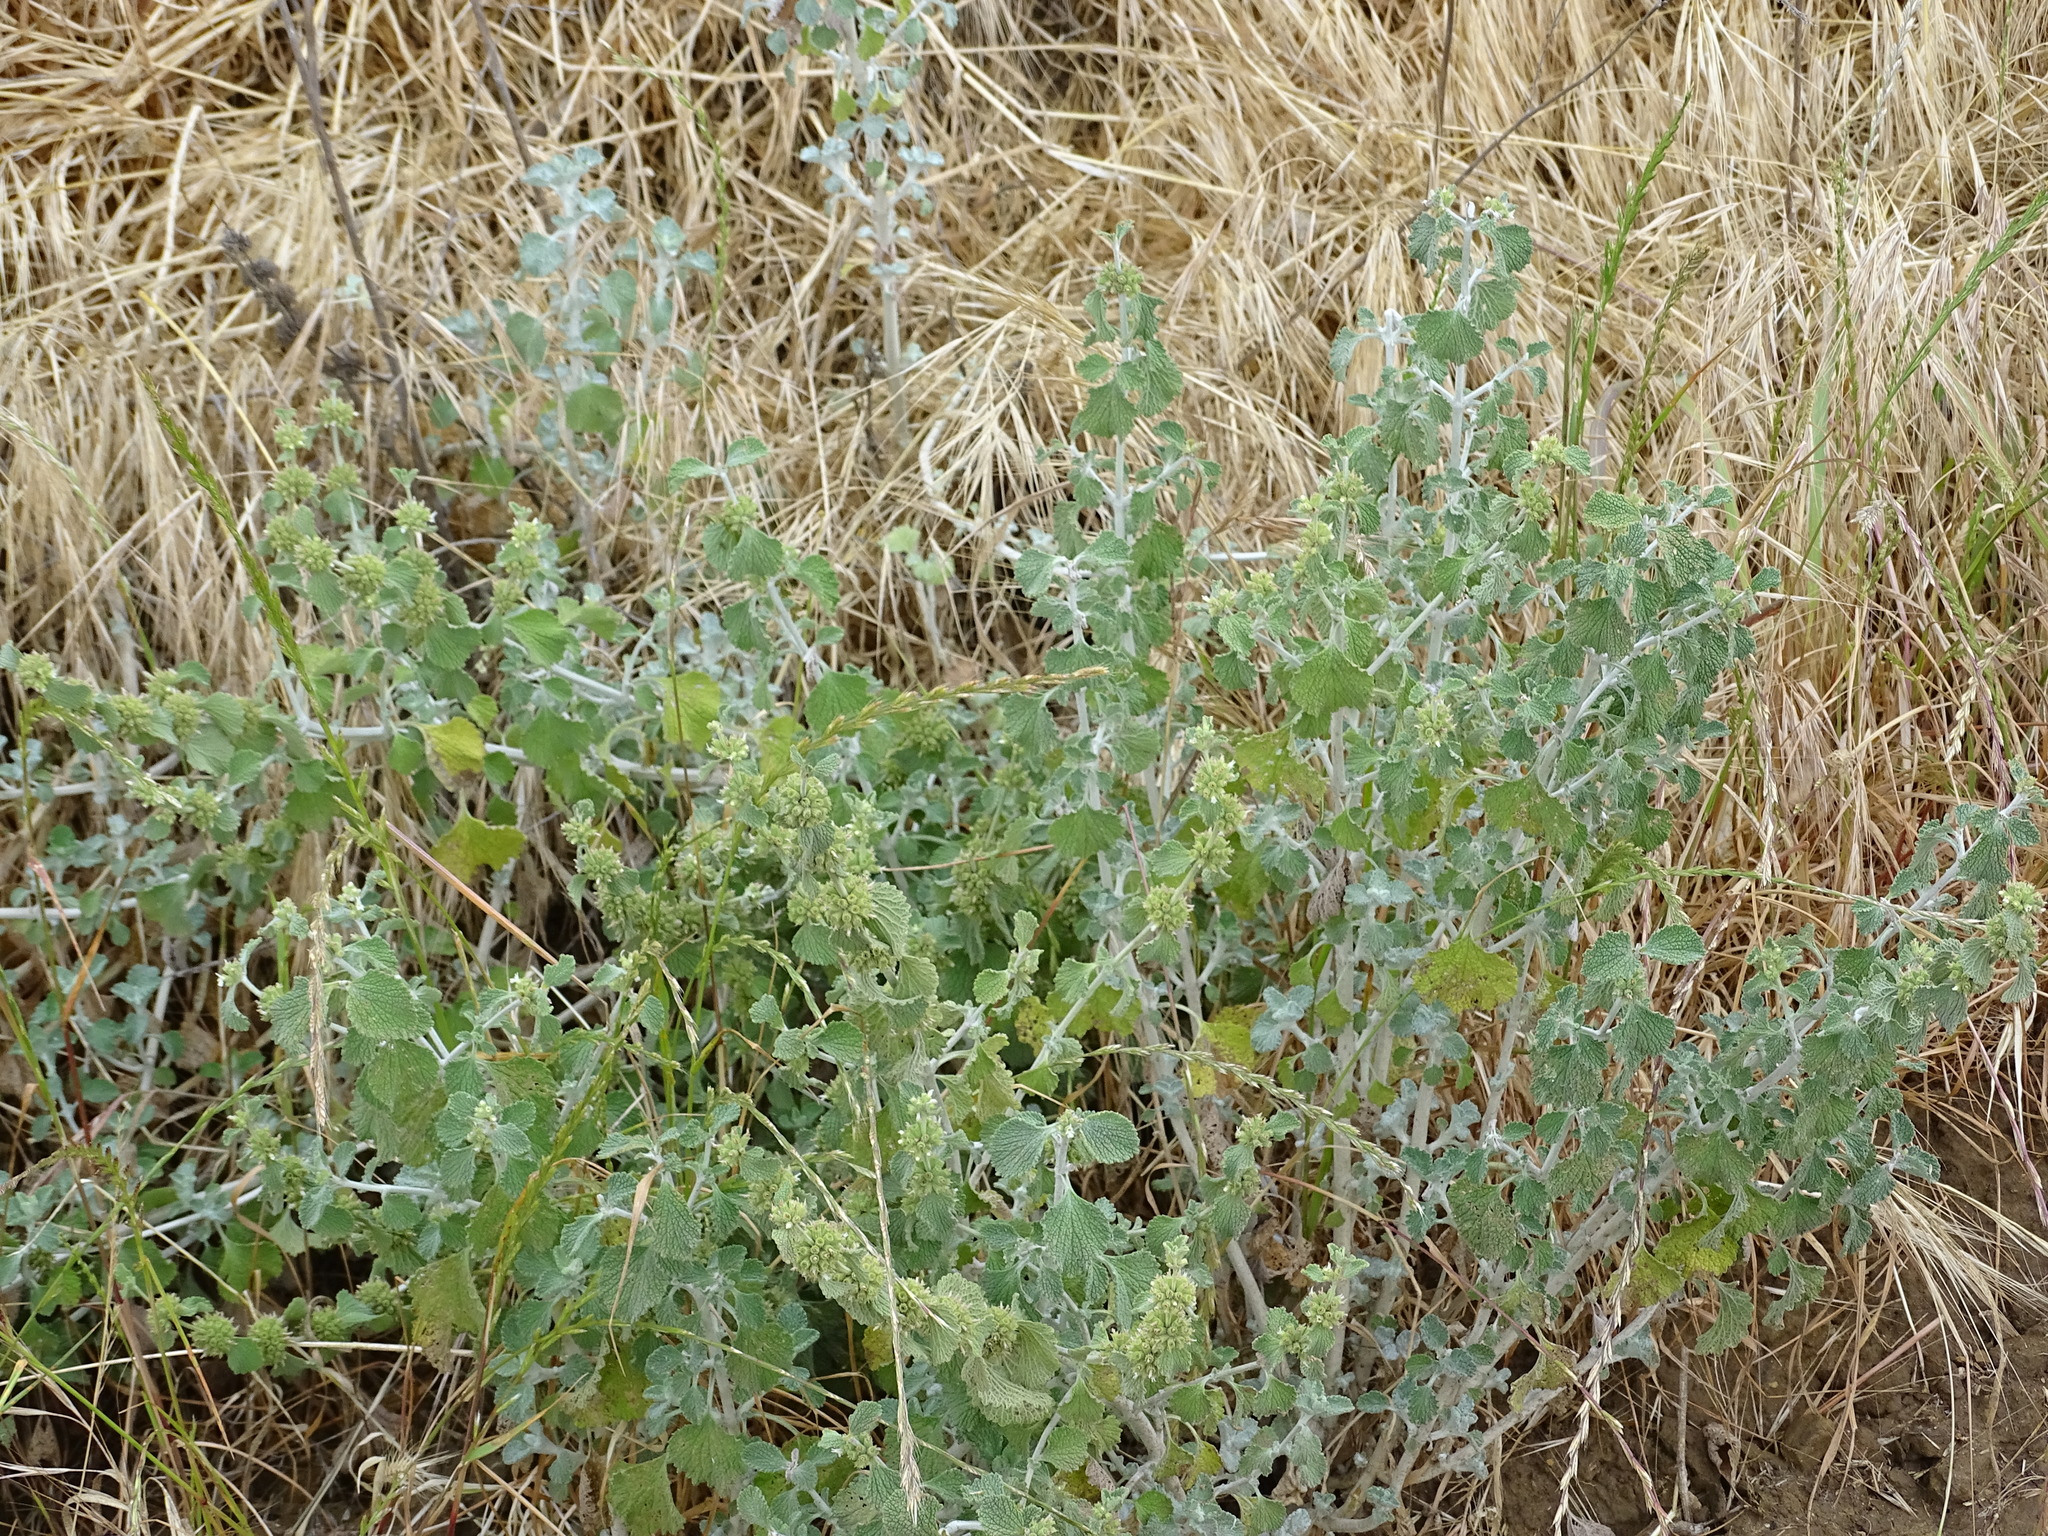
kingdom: Plantae
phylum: Tracheophyta
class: Magnoliopsida
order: Lamiales
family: Lamiaceae
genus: Marrubium
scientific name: Marrubium vulgare
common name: Horehound
